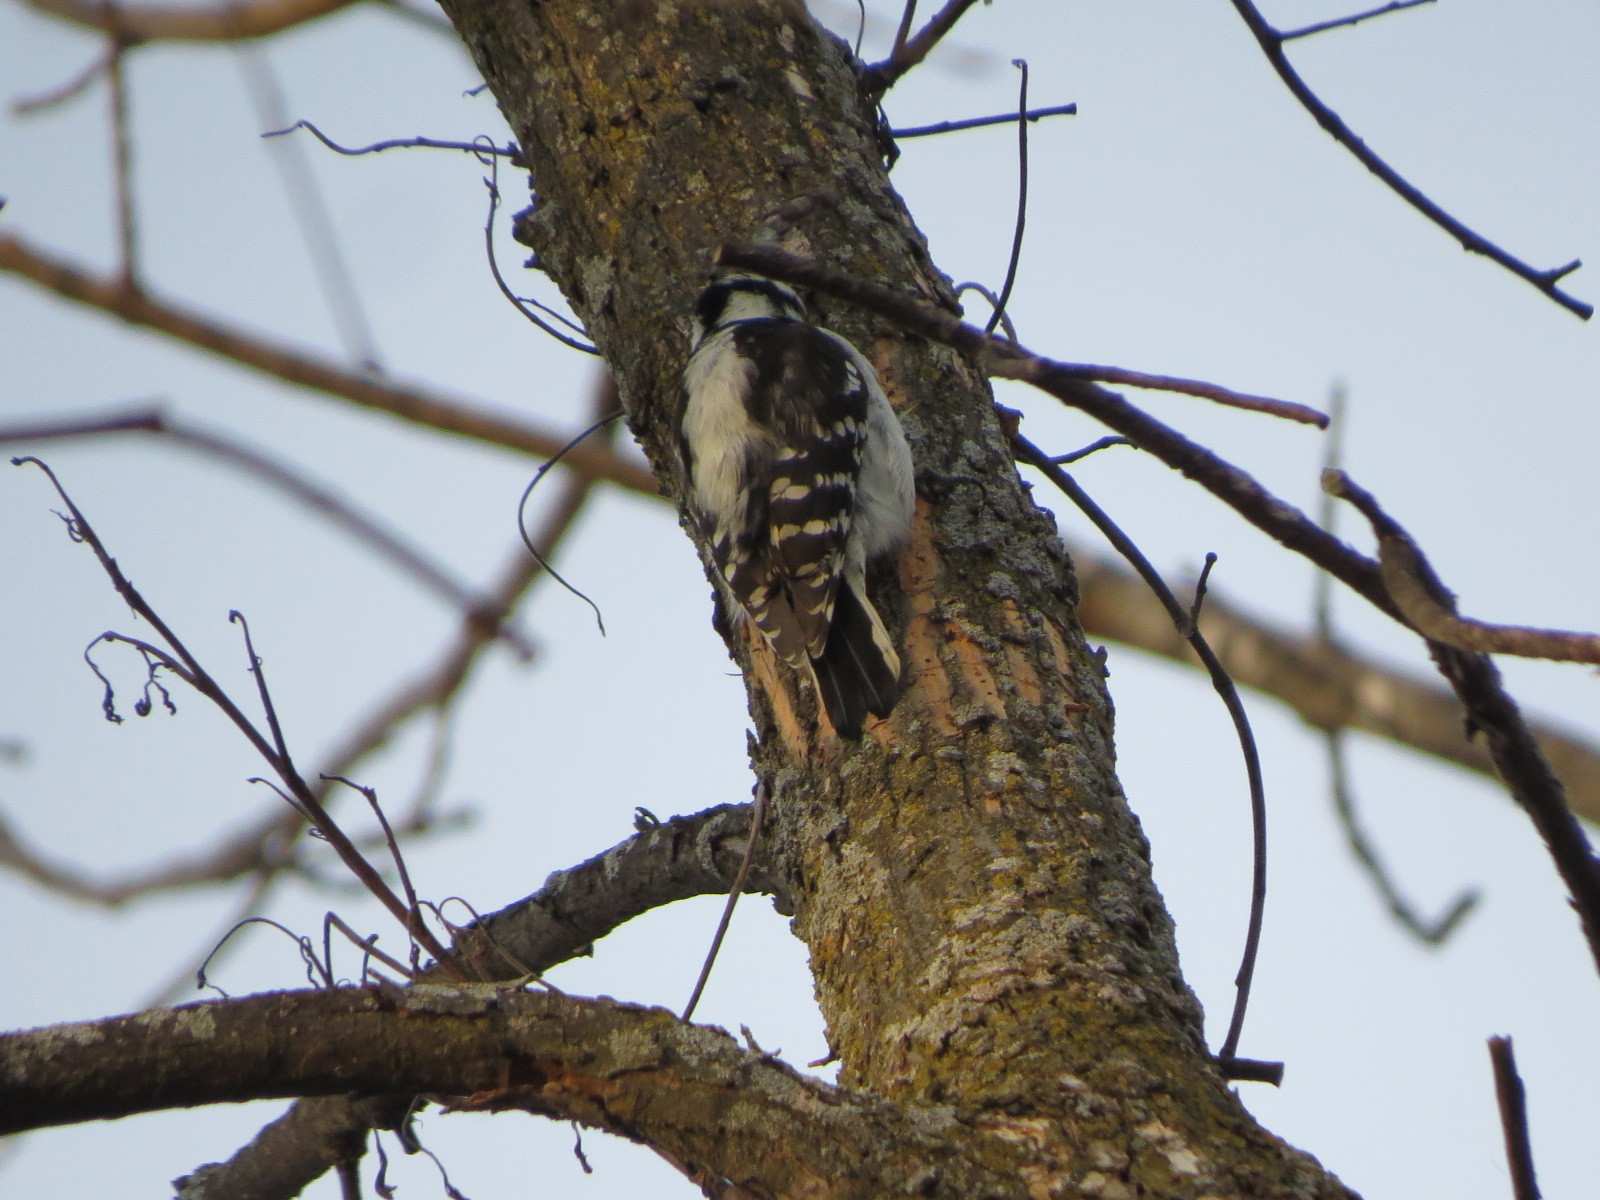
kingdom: Animalia
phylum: Chordata
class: Aves
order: Piciformes
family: Picidae
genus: Dryobates
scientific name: Dryobates pubescens
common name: Downy woodpecker
